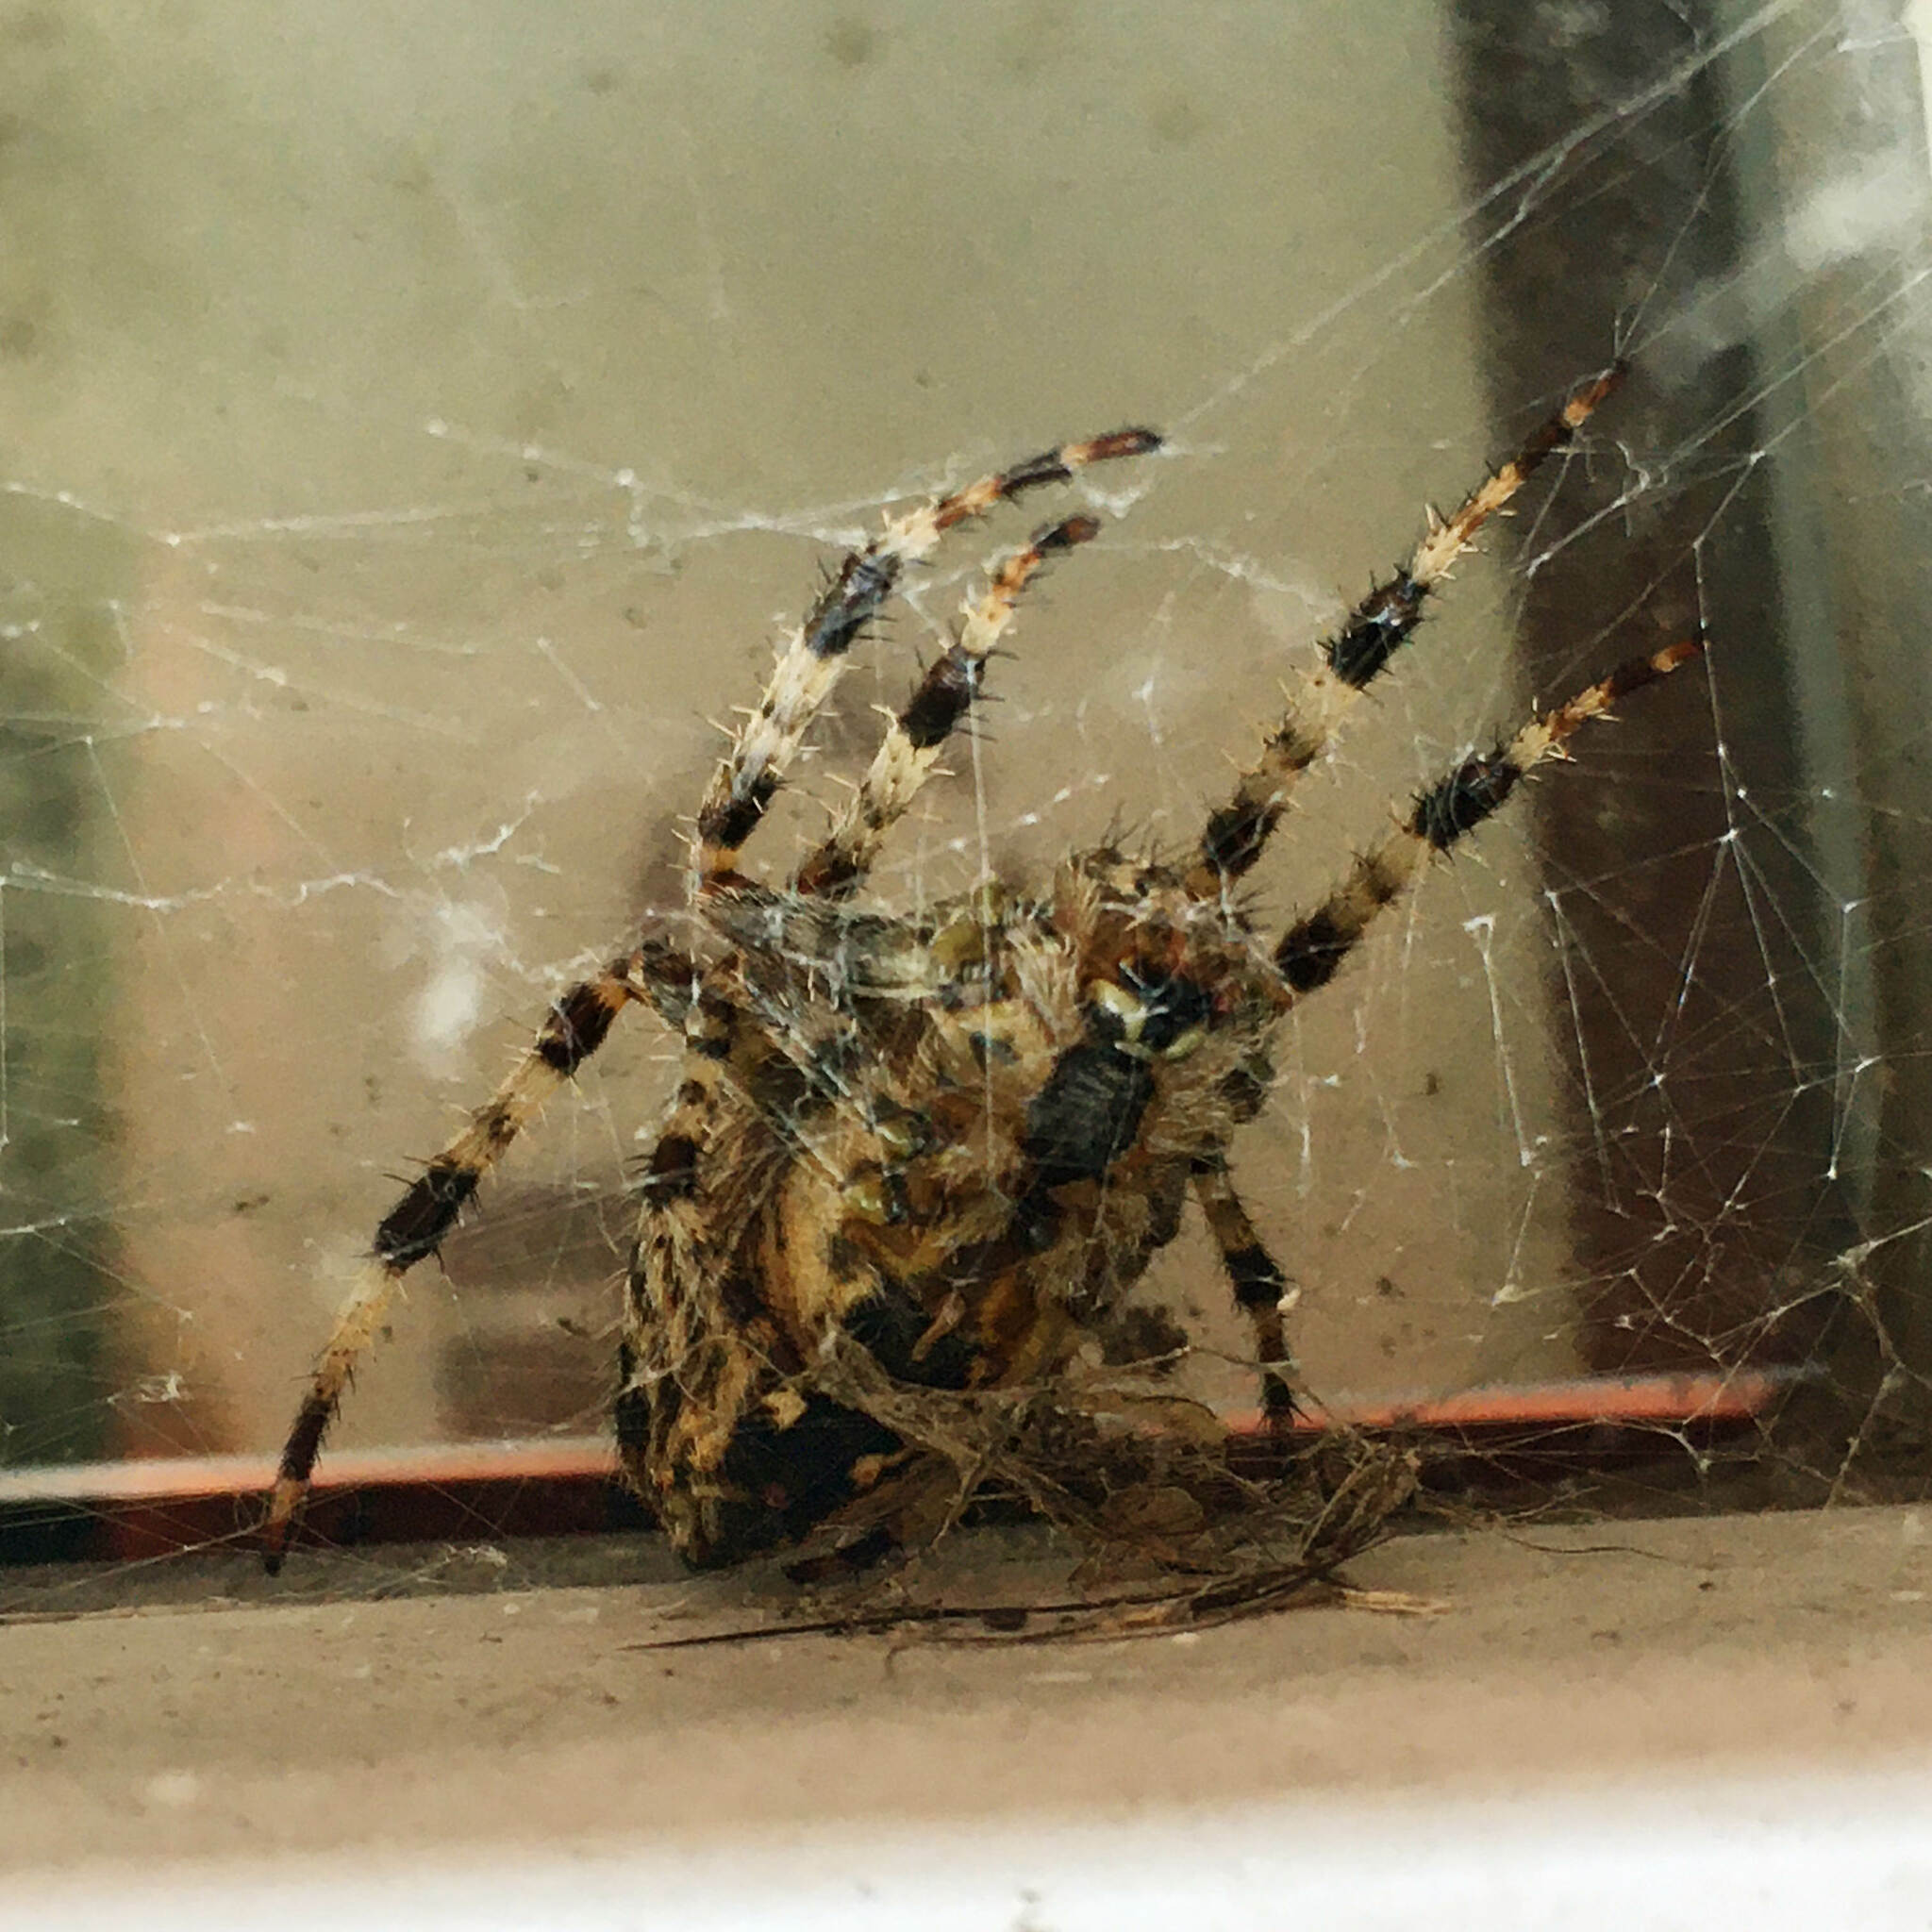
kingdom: Animalia
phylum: Arthropoda
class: Arachnida
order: Araneae
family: Araneidae
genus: Araneus
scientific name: Araneus diadematus
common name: Cross orbweaver
